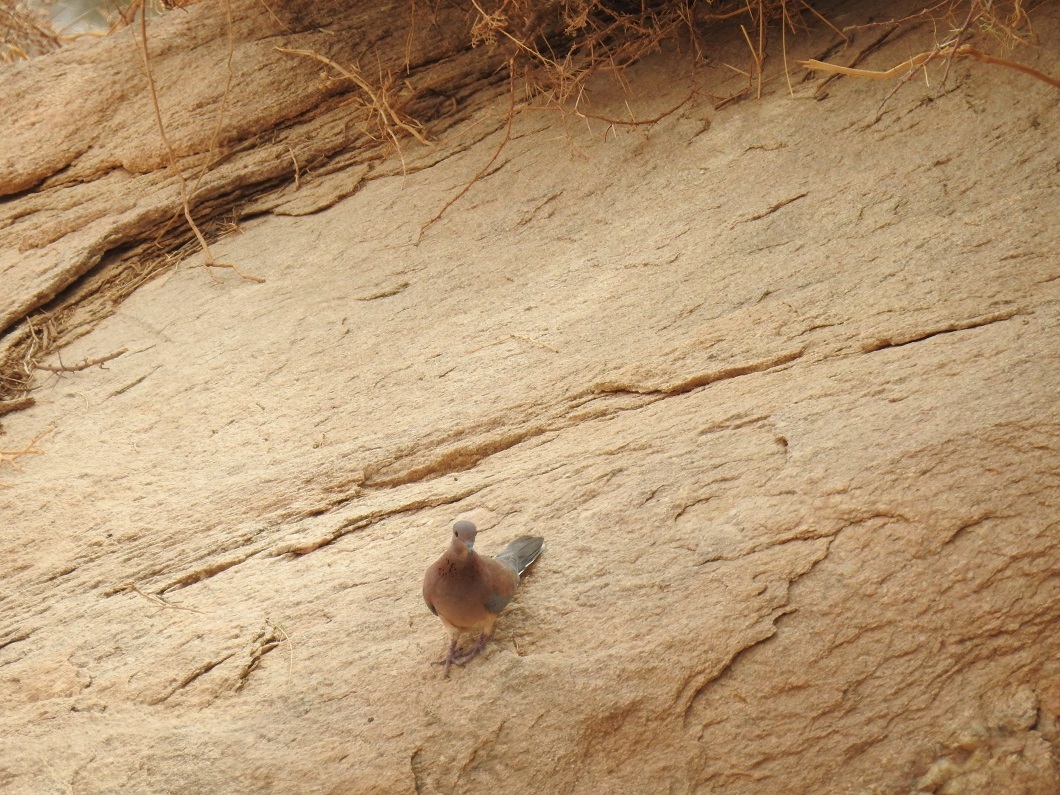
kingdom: Animalia
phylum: Chordata
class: Aves
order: Columbiformes
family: Columbidae
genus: Spilopelia
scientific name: Spilopelia senegalensis
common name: Laughing dove
